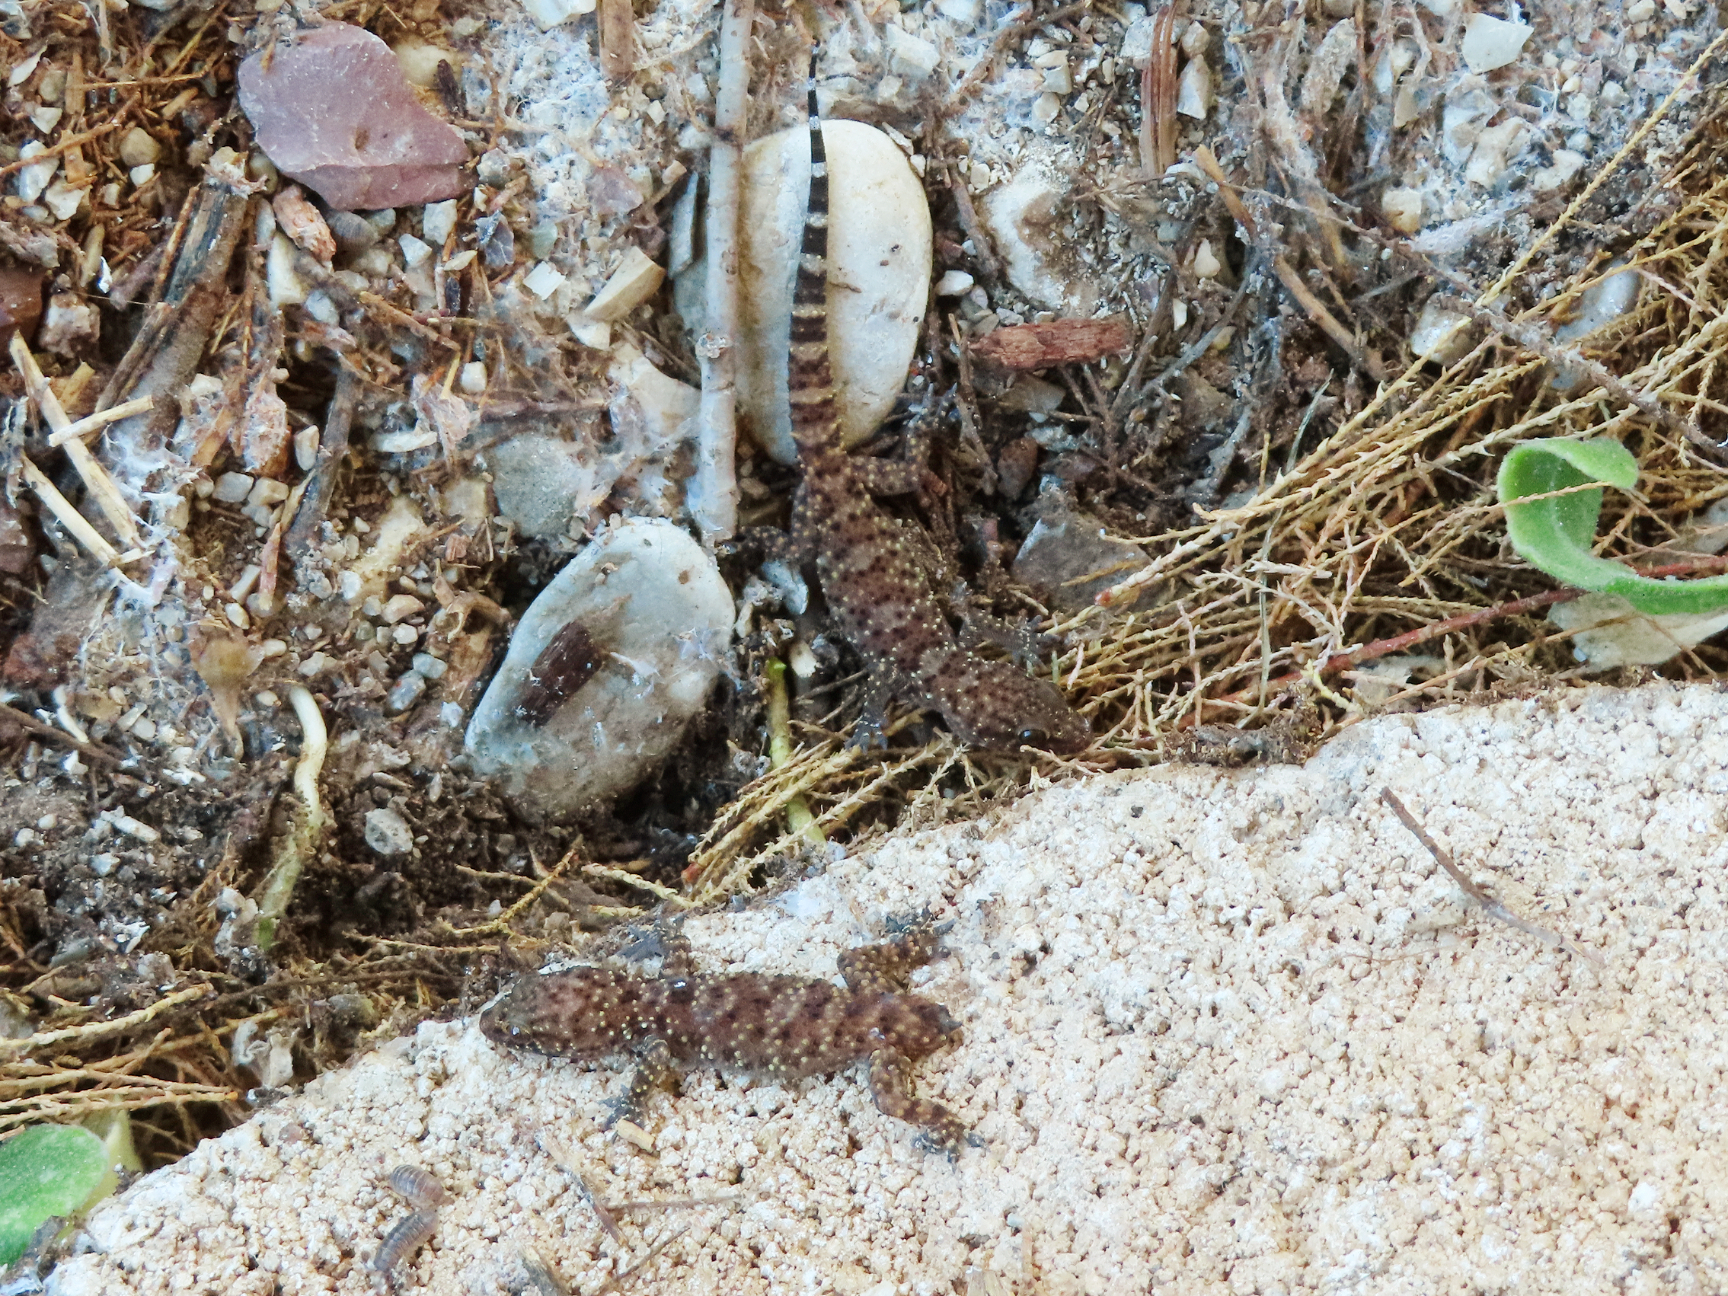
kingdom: Animalia
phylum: Chordata
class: Squamata
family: Gekkonidae
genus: Hemidactylus
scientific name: Hemidactylus turcicus
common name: Turkish gecko
